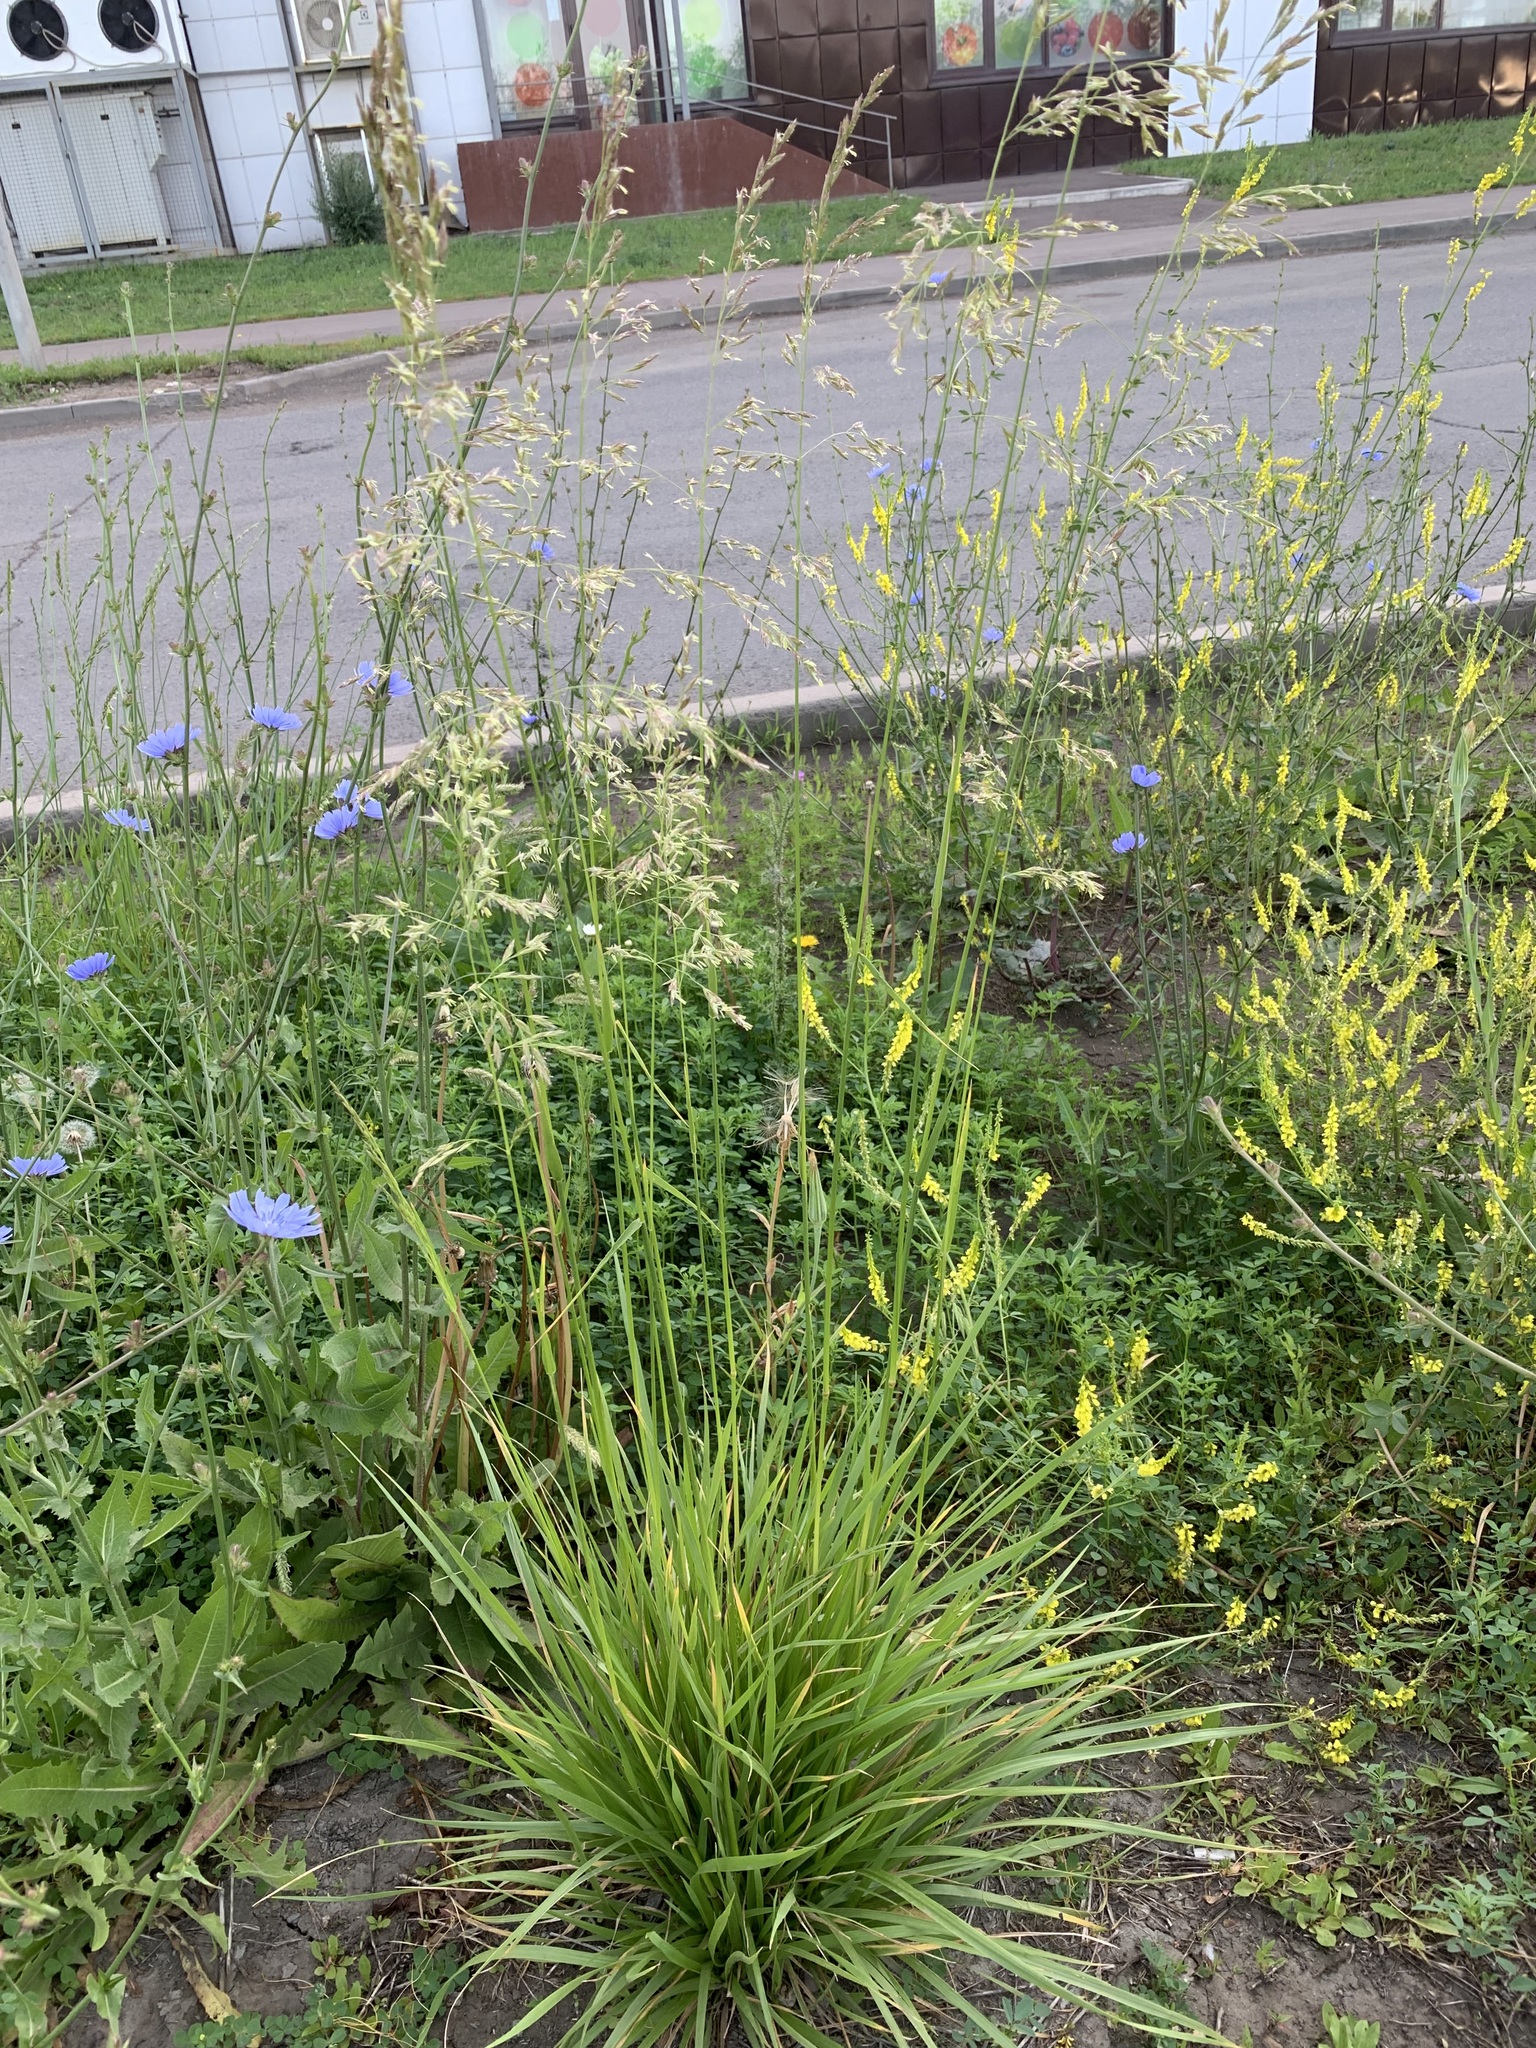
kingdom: Plantae
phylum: Tracheophyta
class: Liliopsida
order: Poales
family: Poaceae
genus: Lolium
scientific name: Lolium arundinaceum
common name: Reed fescue
